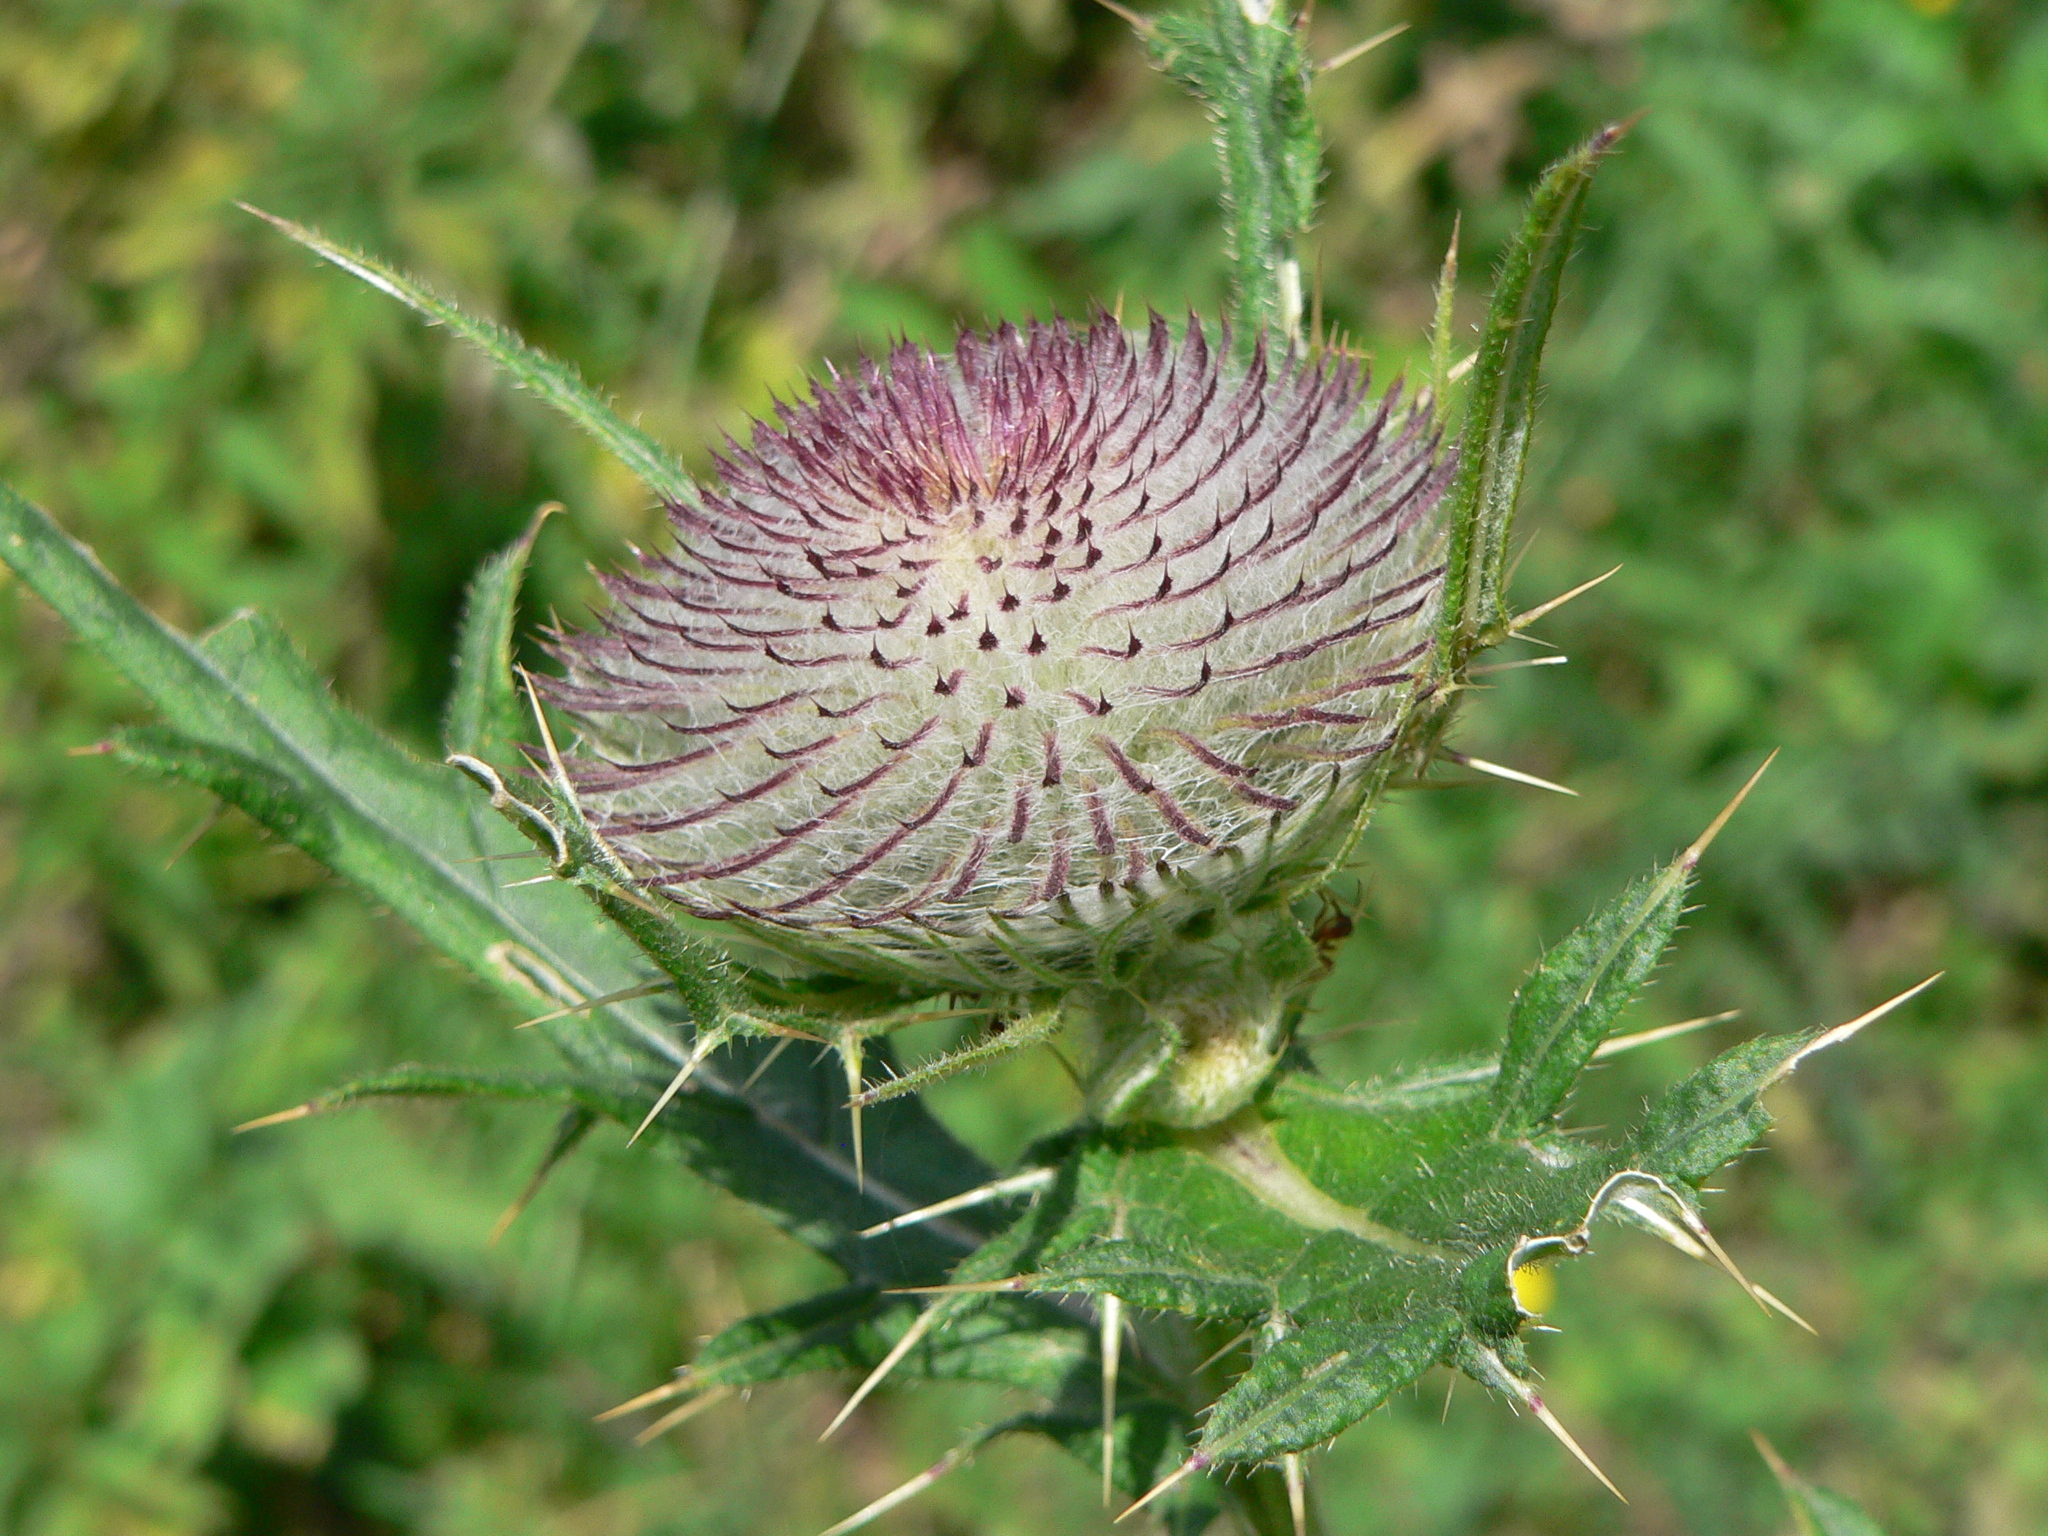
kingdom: Plantae
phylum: Tracheophyta
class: Magnoliopsida
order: Asterales
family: Asteraceae
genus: Lophiolepis
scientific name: Lophiolepis eriophora
